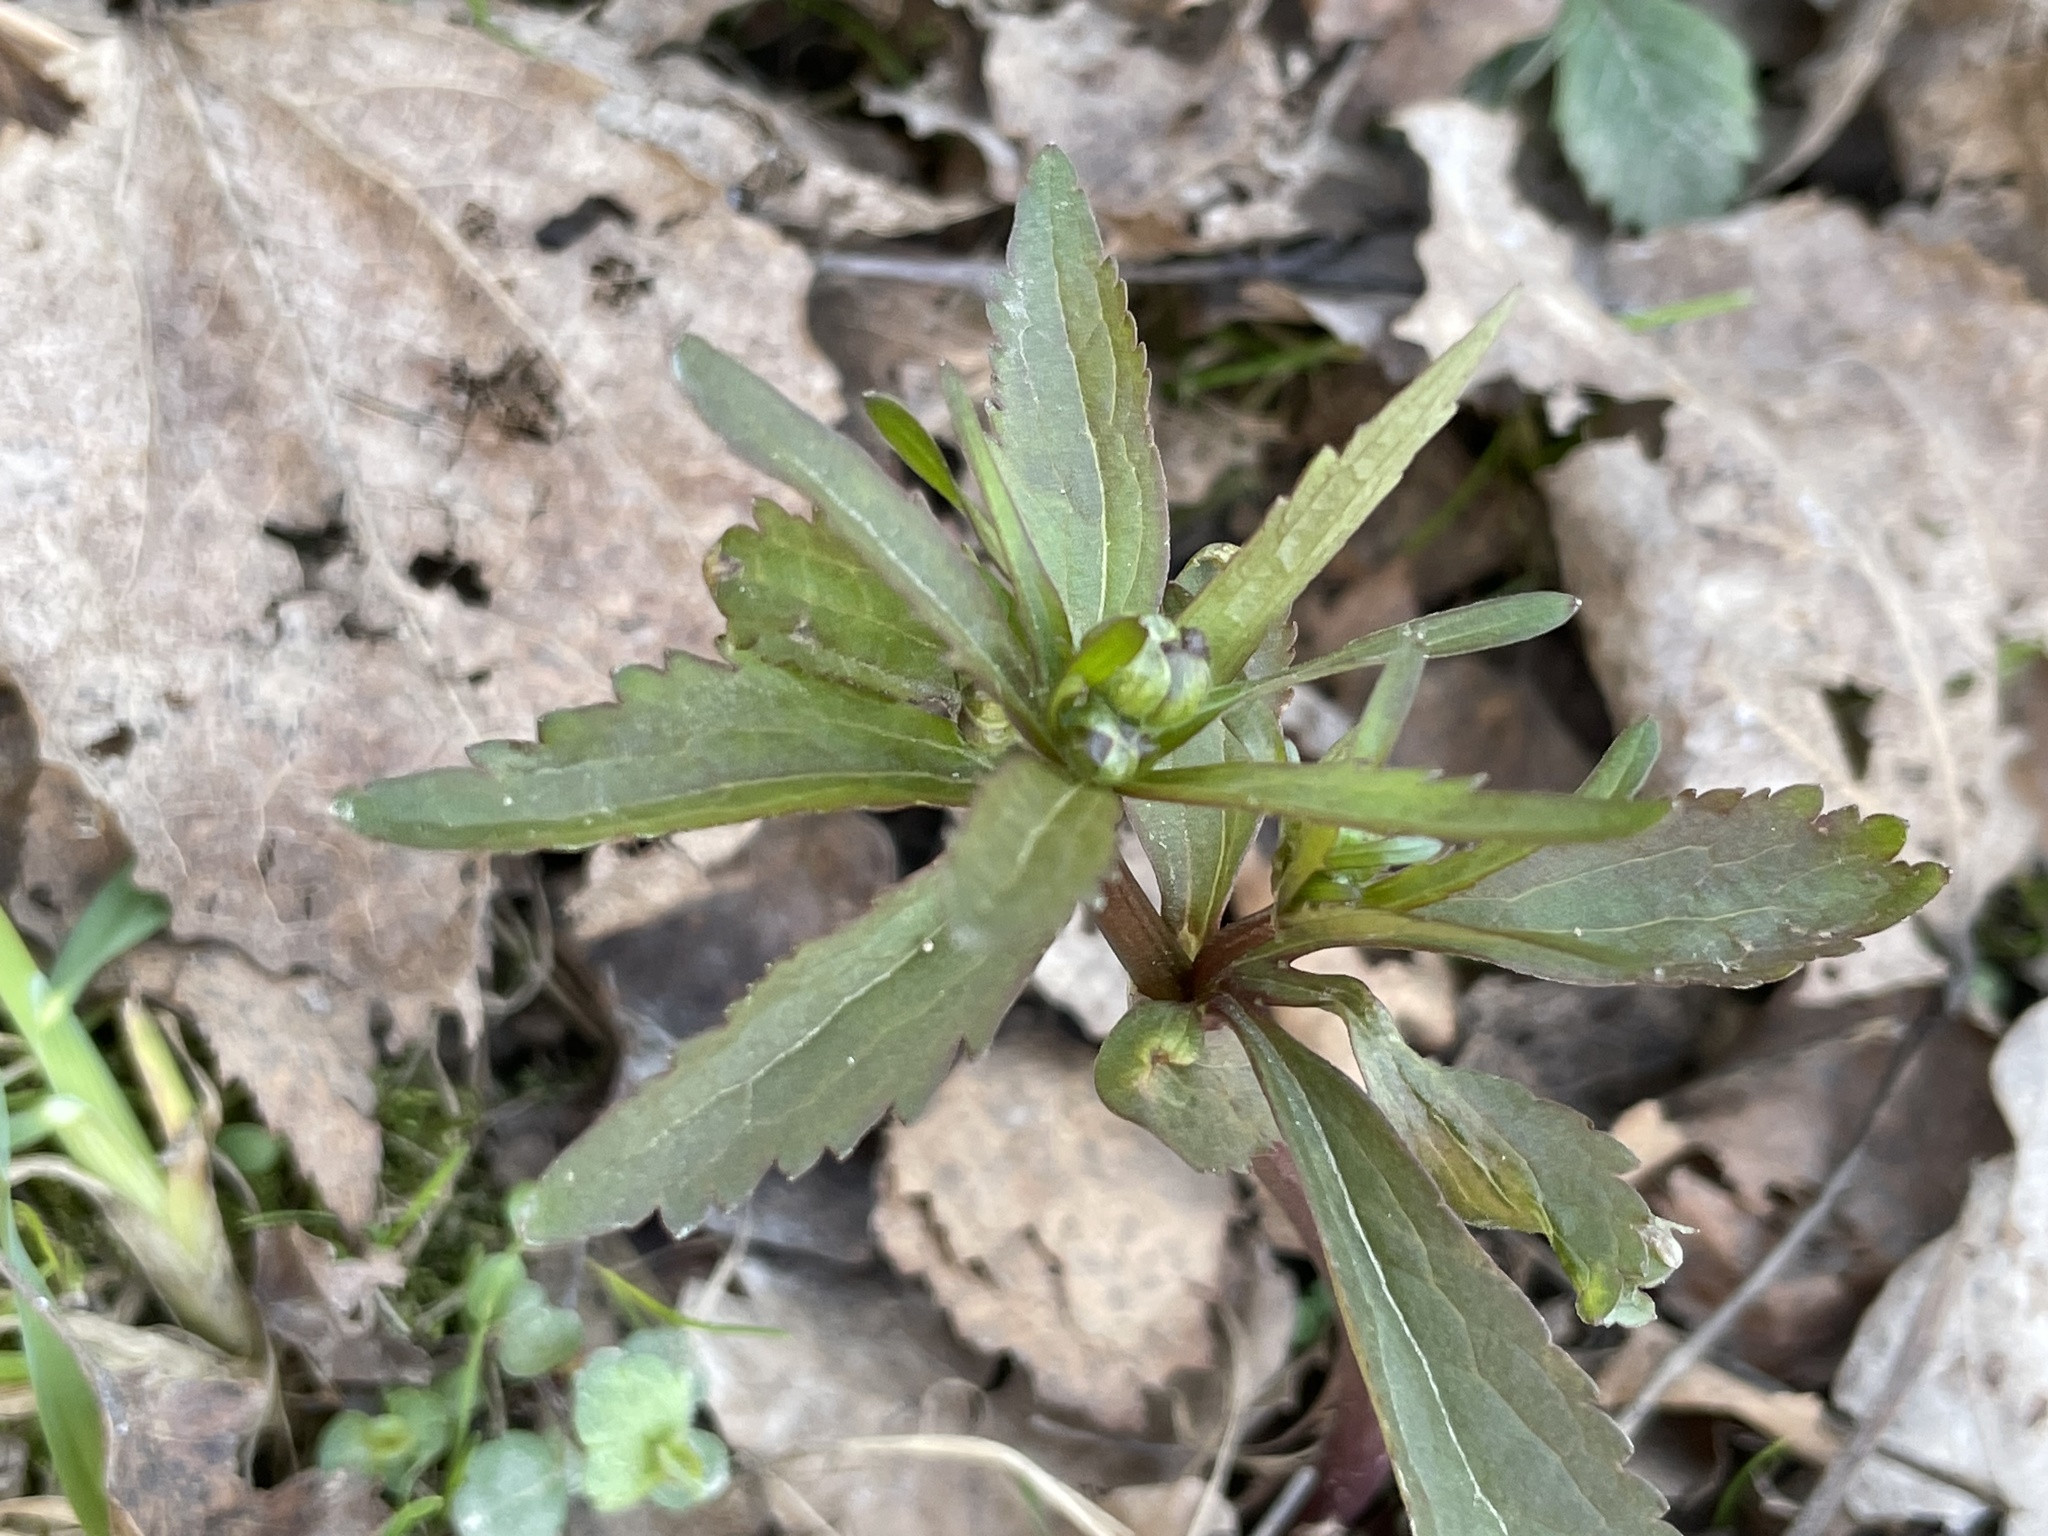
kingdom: Plantae
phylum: Tracheophyta
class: Magnoliopsida
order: Ranunculales
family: Ranunculaceae
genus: Ranunculus
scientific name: Ranunculus cassubicus
